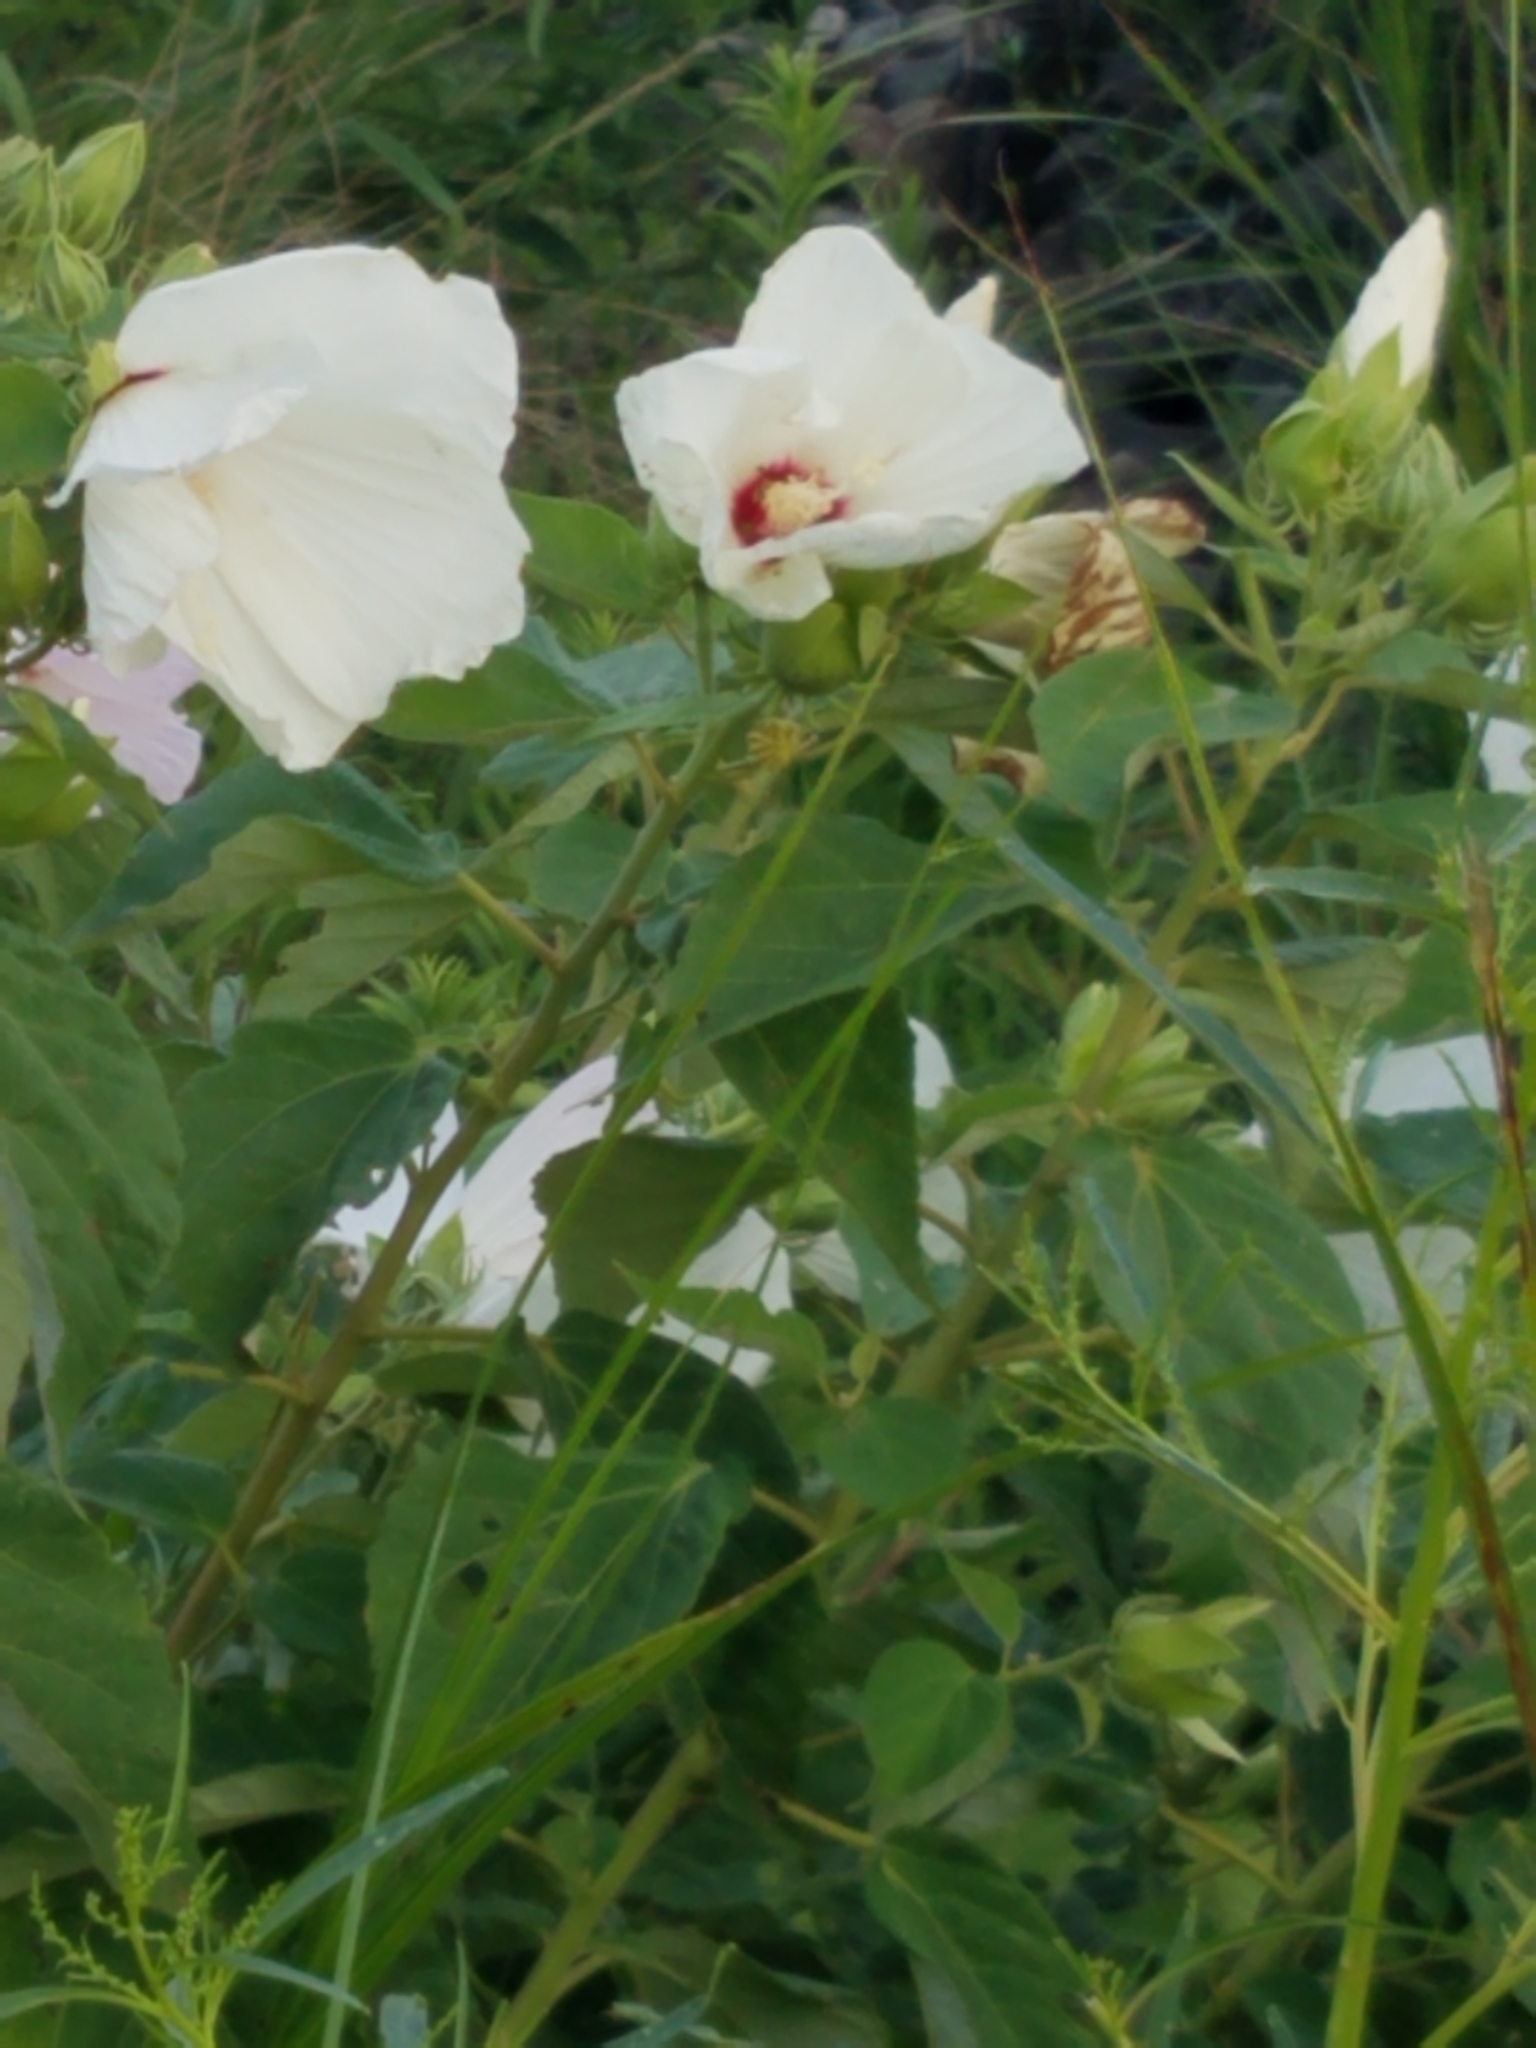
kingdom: Plantae
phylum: Tracheophyta
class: Magnoliopsida
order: Malvales
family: Malvaceae
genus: Hibiscus
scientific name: Hibiscus moscheutos
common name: Common rose-mallow
